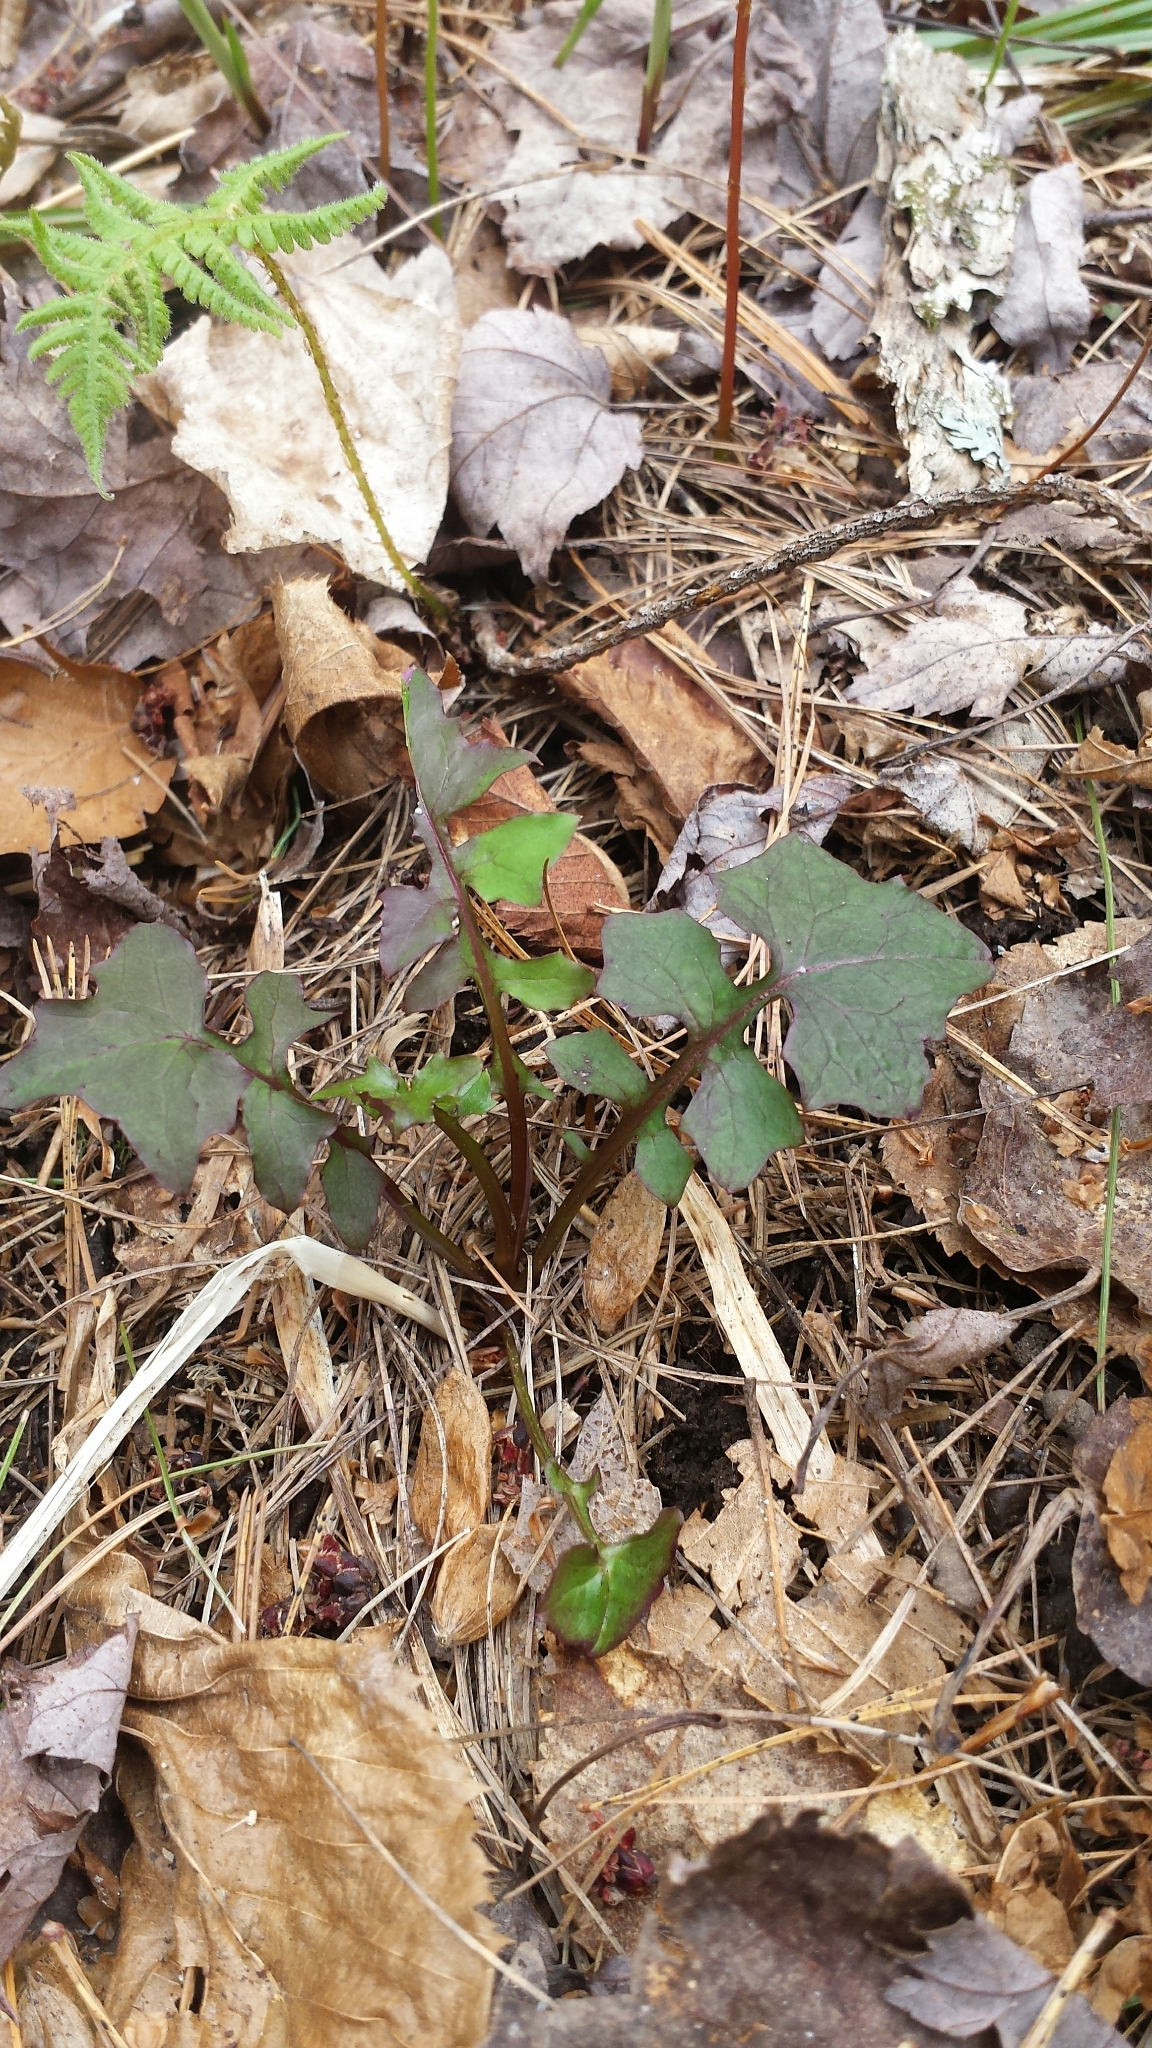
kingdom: Plantae
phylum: Tracheophyta
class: Magnoliopsida
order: Asterales
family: Asteraceae
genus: Mycelis
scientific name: Mycelis muralis
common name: Wall lettuce
